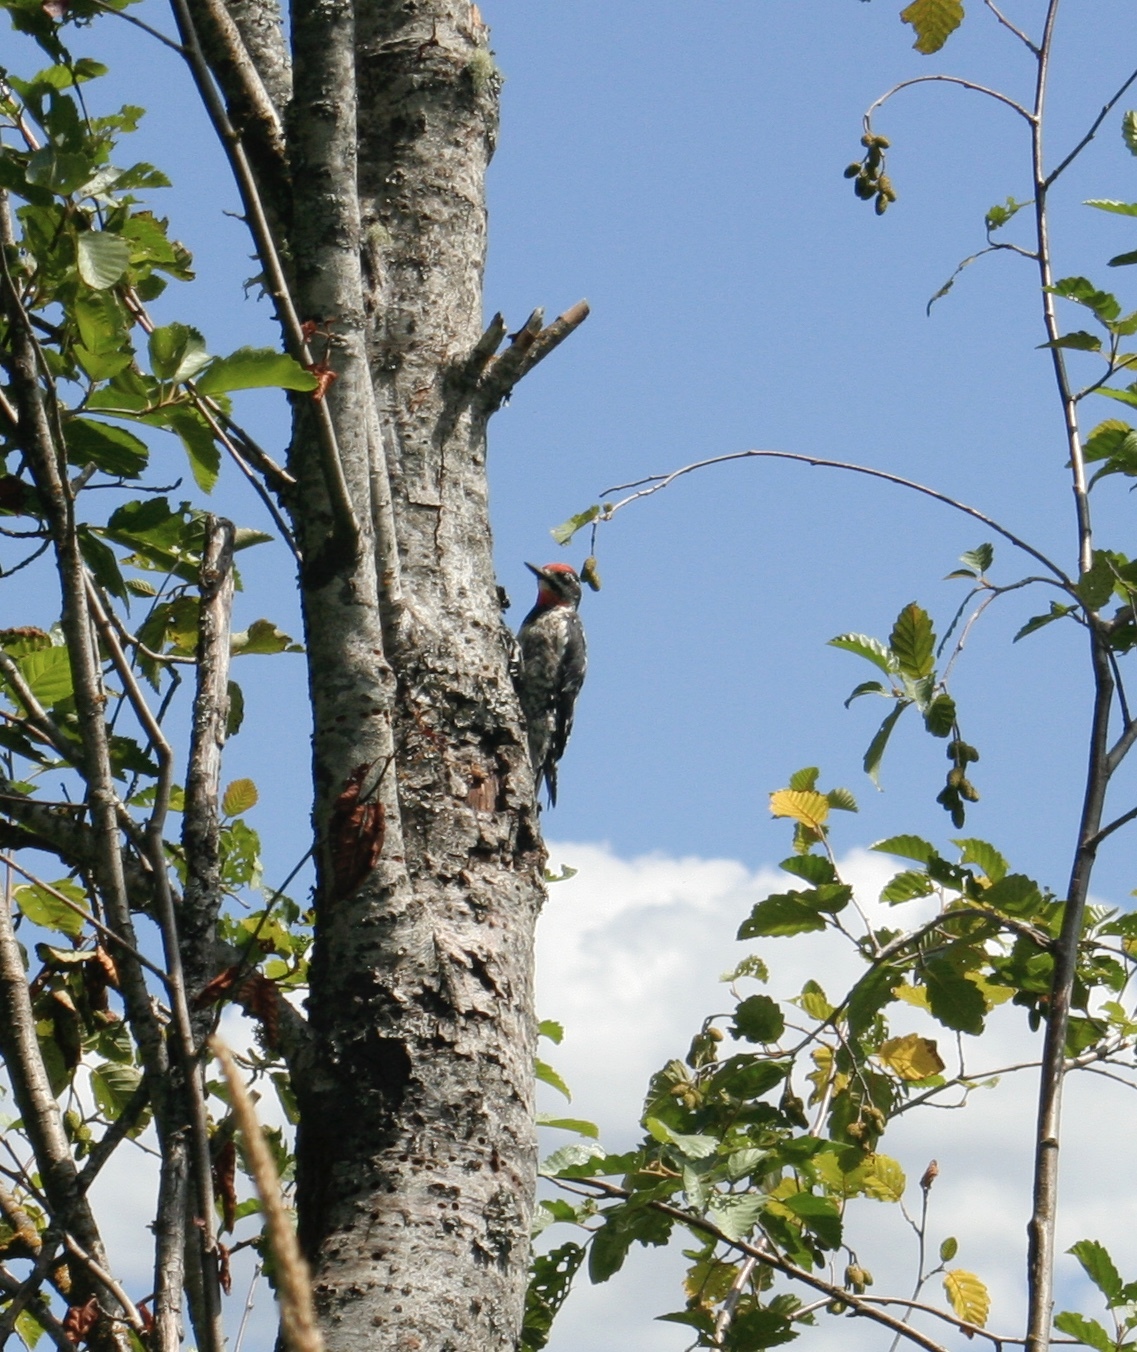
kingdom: Animalia
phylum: Chordata
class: Aves
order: Piciformes
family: Picidae
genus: Sphyrapicus
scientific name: Sphyrapicus nuchalis
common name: Red-naped sapsucker
